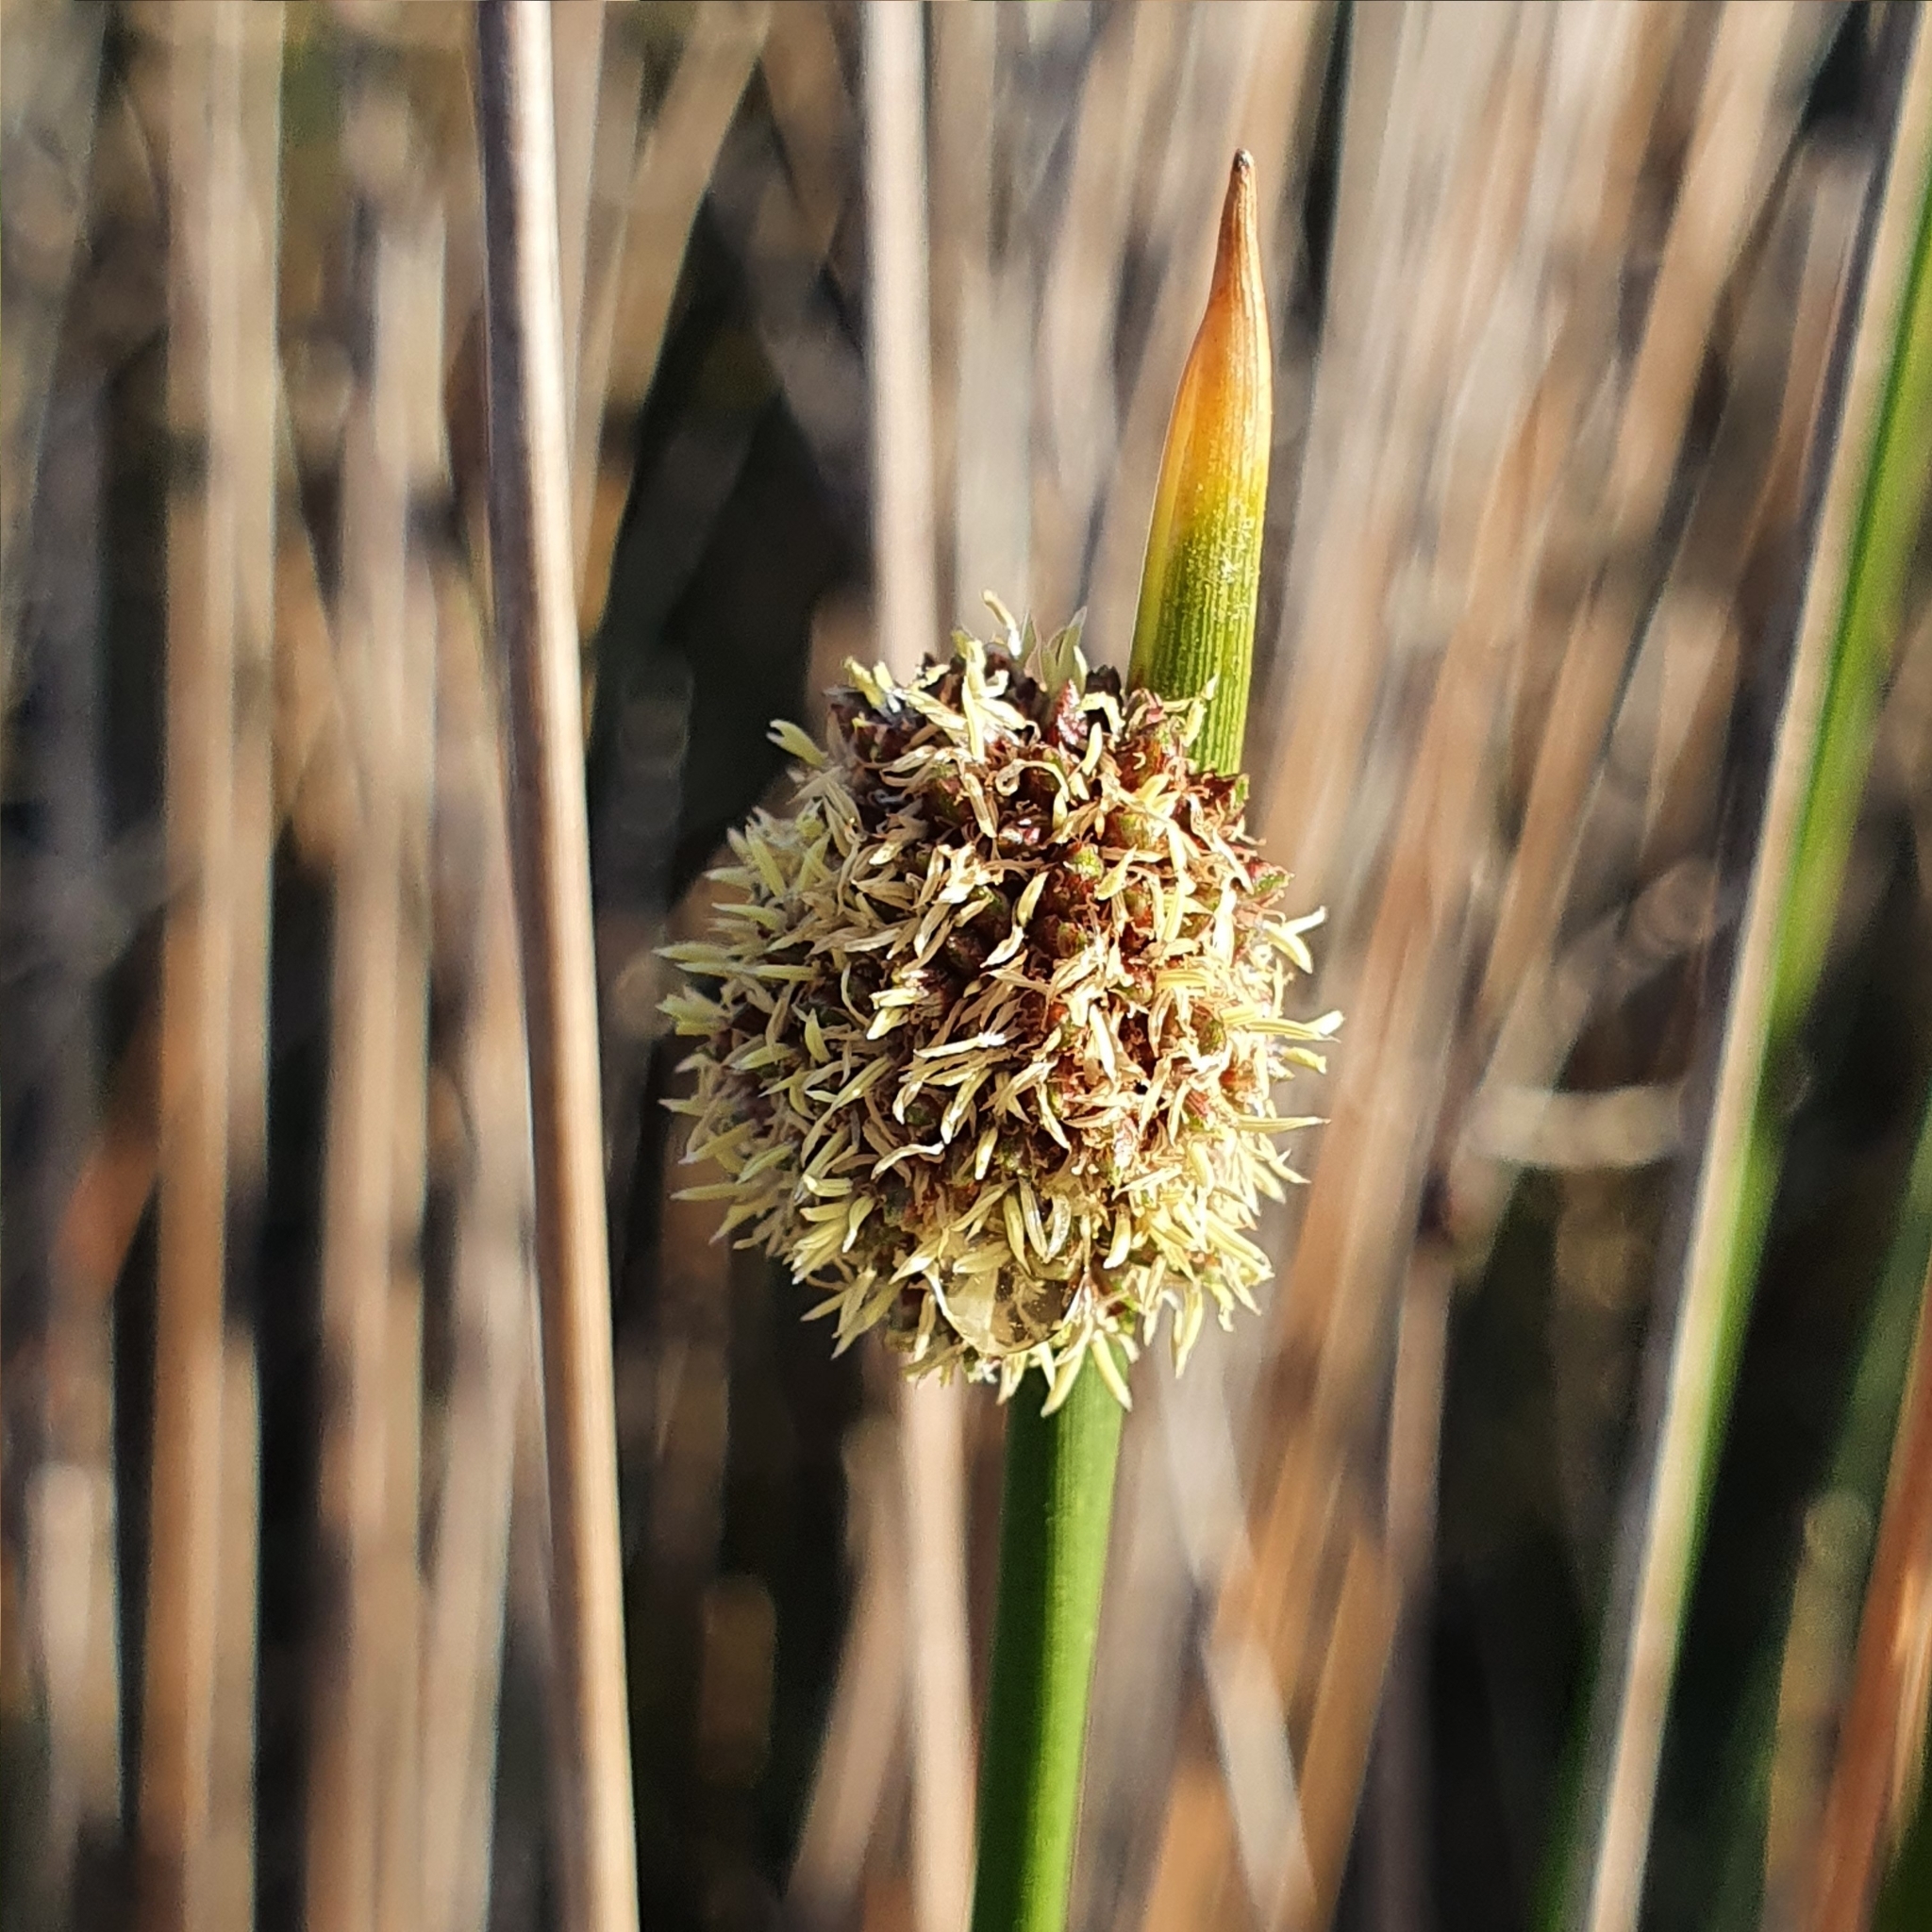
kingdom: Plantae
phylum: Tracheophyta
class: Liliopsida
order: Poales
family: Cyperaceae
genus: Ficinia
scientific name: Ficinia nodosa
